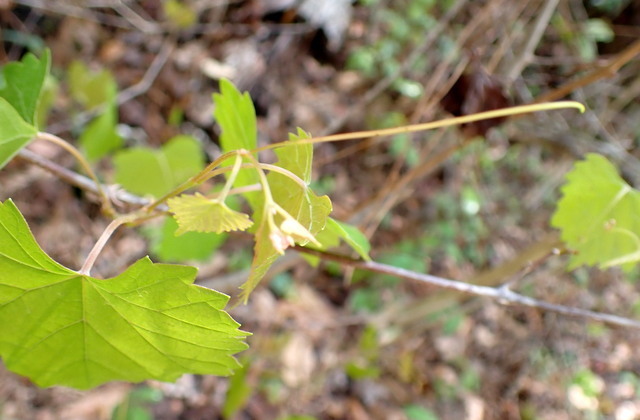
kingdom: Plantae
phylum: Tracheophyta
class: Magnoliopsida
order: Vitales
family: Vitaceae
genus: Vitis
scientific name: Vitis rotundifolia
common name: Muscadine grape
